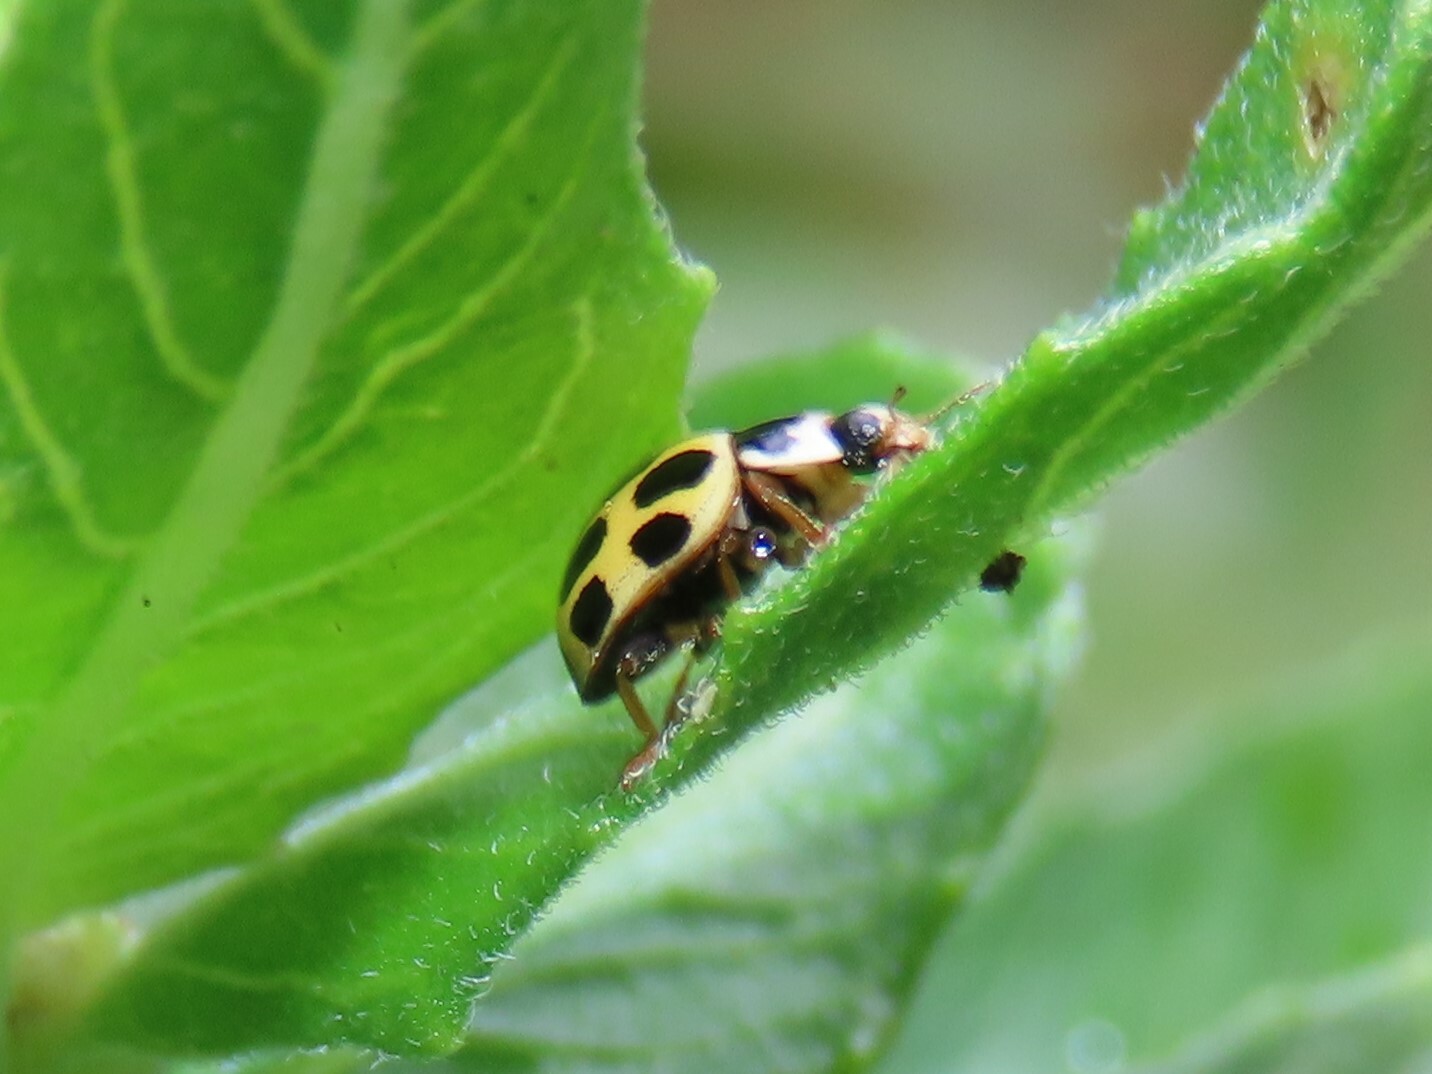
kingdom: Animalia
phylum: Arthropoda
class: Insecta
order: Coleoptera
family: Coccinellidae
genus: Propylaea
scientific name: Propylaea quatuordecimpunctata
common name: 14-spotted ladybird beetle
